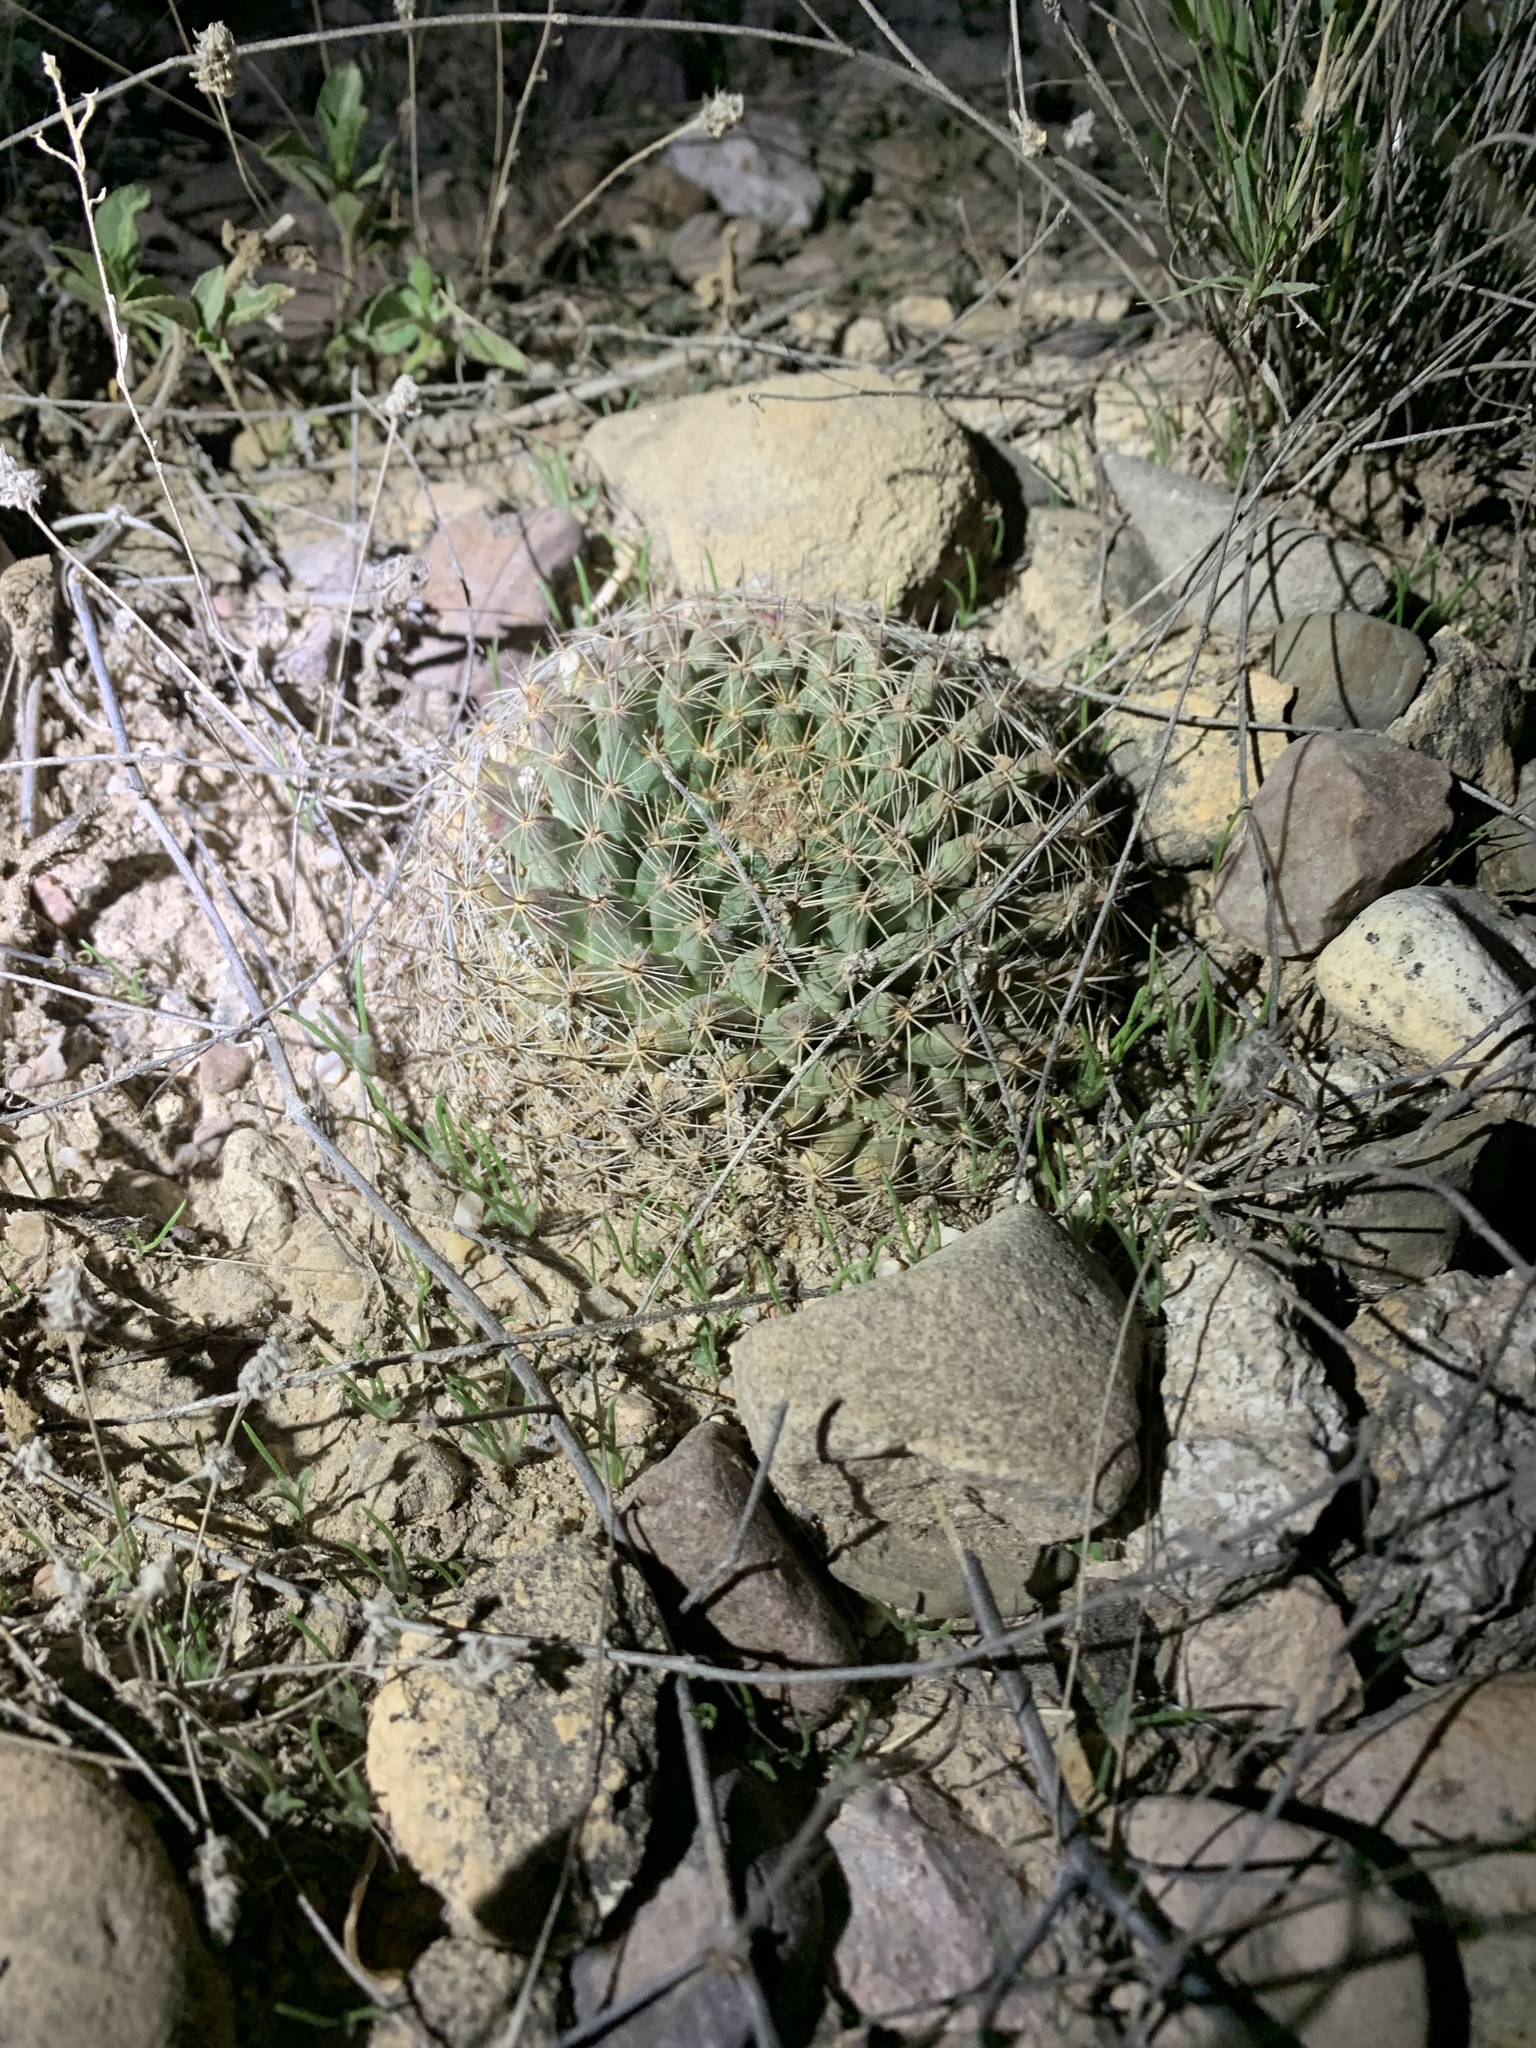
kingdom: Plantae
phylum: Tracheophyta
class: Magnoliopsida
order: Caryophyllales
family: Cactaceae
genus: Mammillaria
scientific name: Mammillaria heyderi
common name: Little nipple cactus
